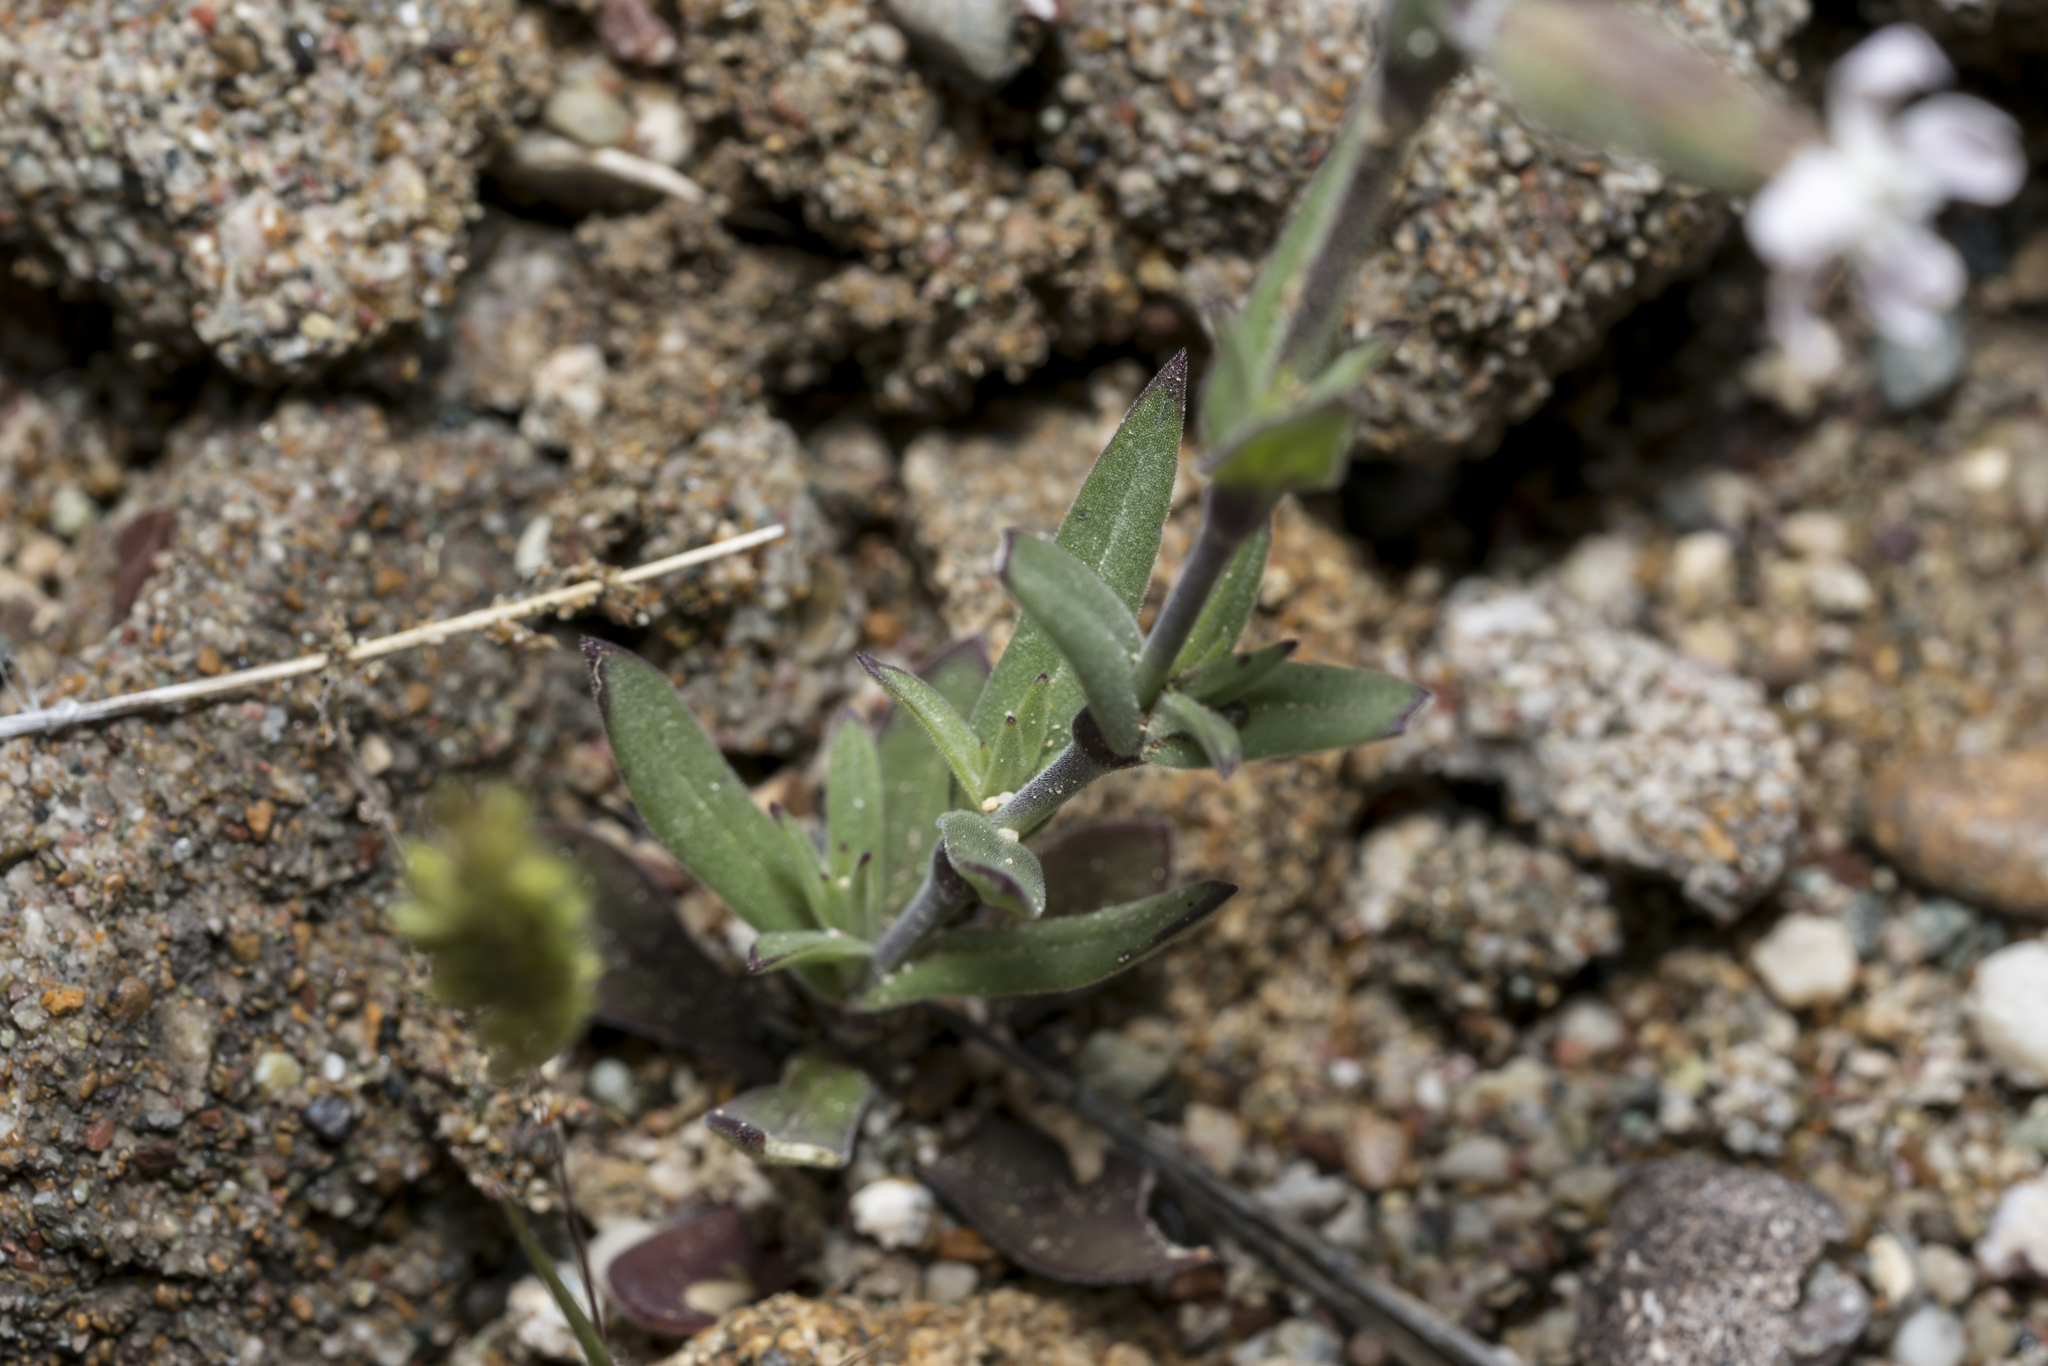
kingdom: Plantae
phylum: Tracheophyta
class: Magnoliopsida
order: Caryophyllales
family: Caryophyllaceae
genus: Silene
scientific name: Silene macrodonta
